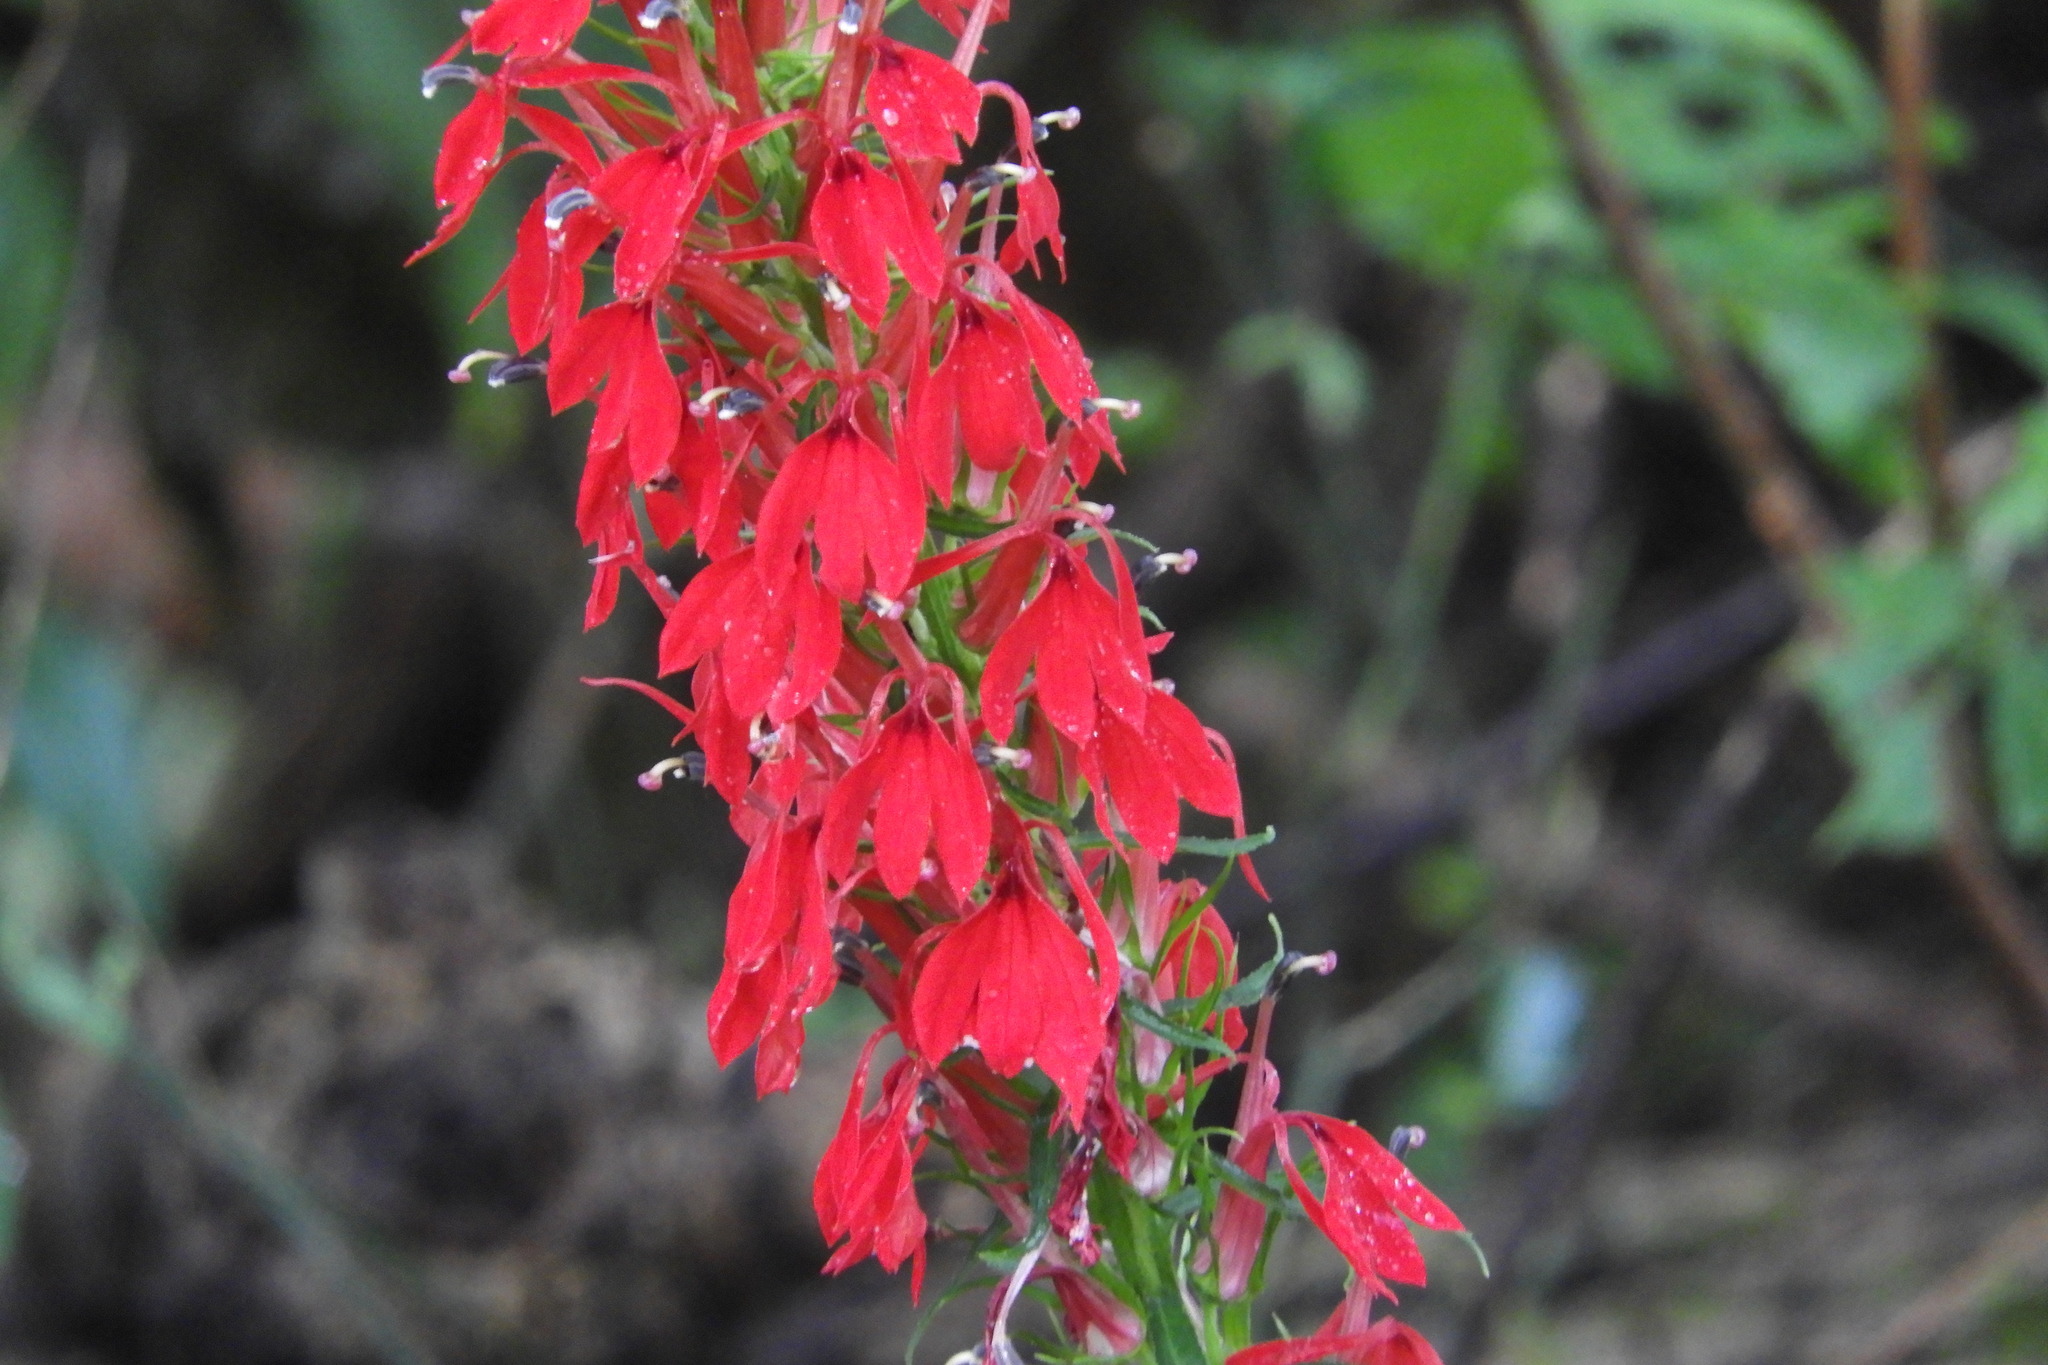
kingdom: Plantae
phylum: Tracheophyta
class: Magnoliopsida
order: Asterales
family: Campanulaceae
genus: Lobelia
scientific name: Lobelia cardinalis
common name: Cardinal flower
